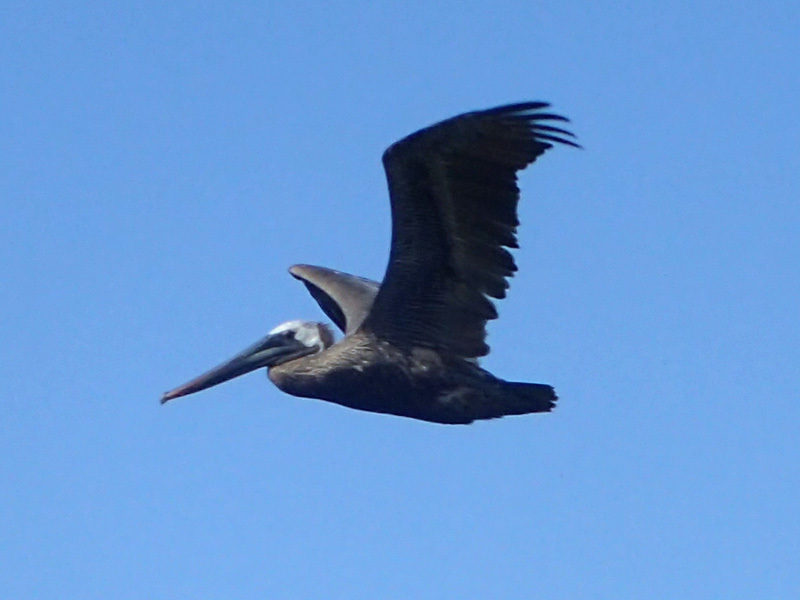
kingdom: Animalia
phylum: Chordata
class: Aves
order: Pelecaniformes
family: Pelecanidae
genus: Pelecanus
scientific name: Pelecanus occidentalis
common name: Brown pelican
